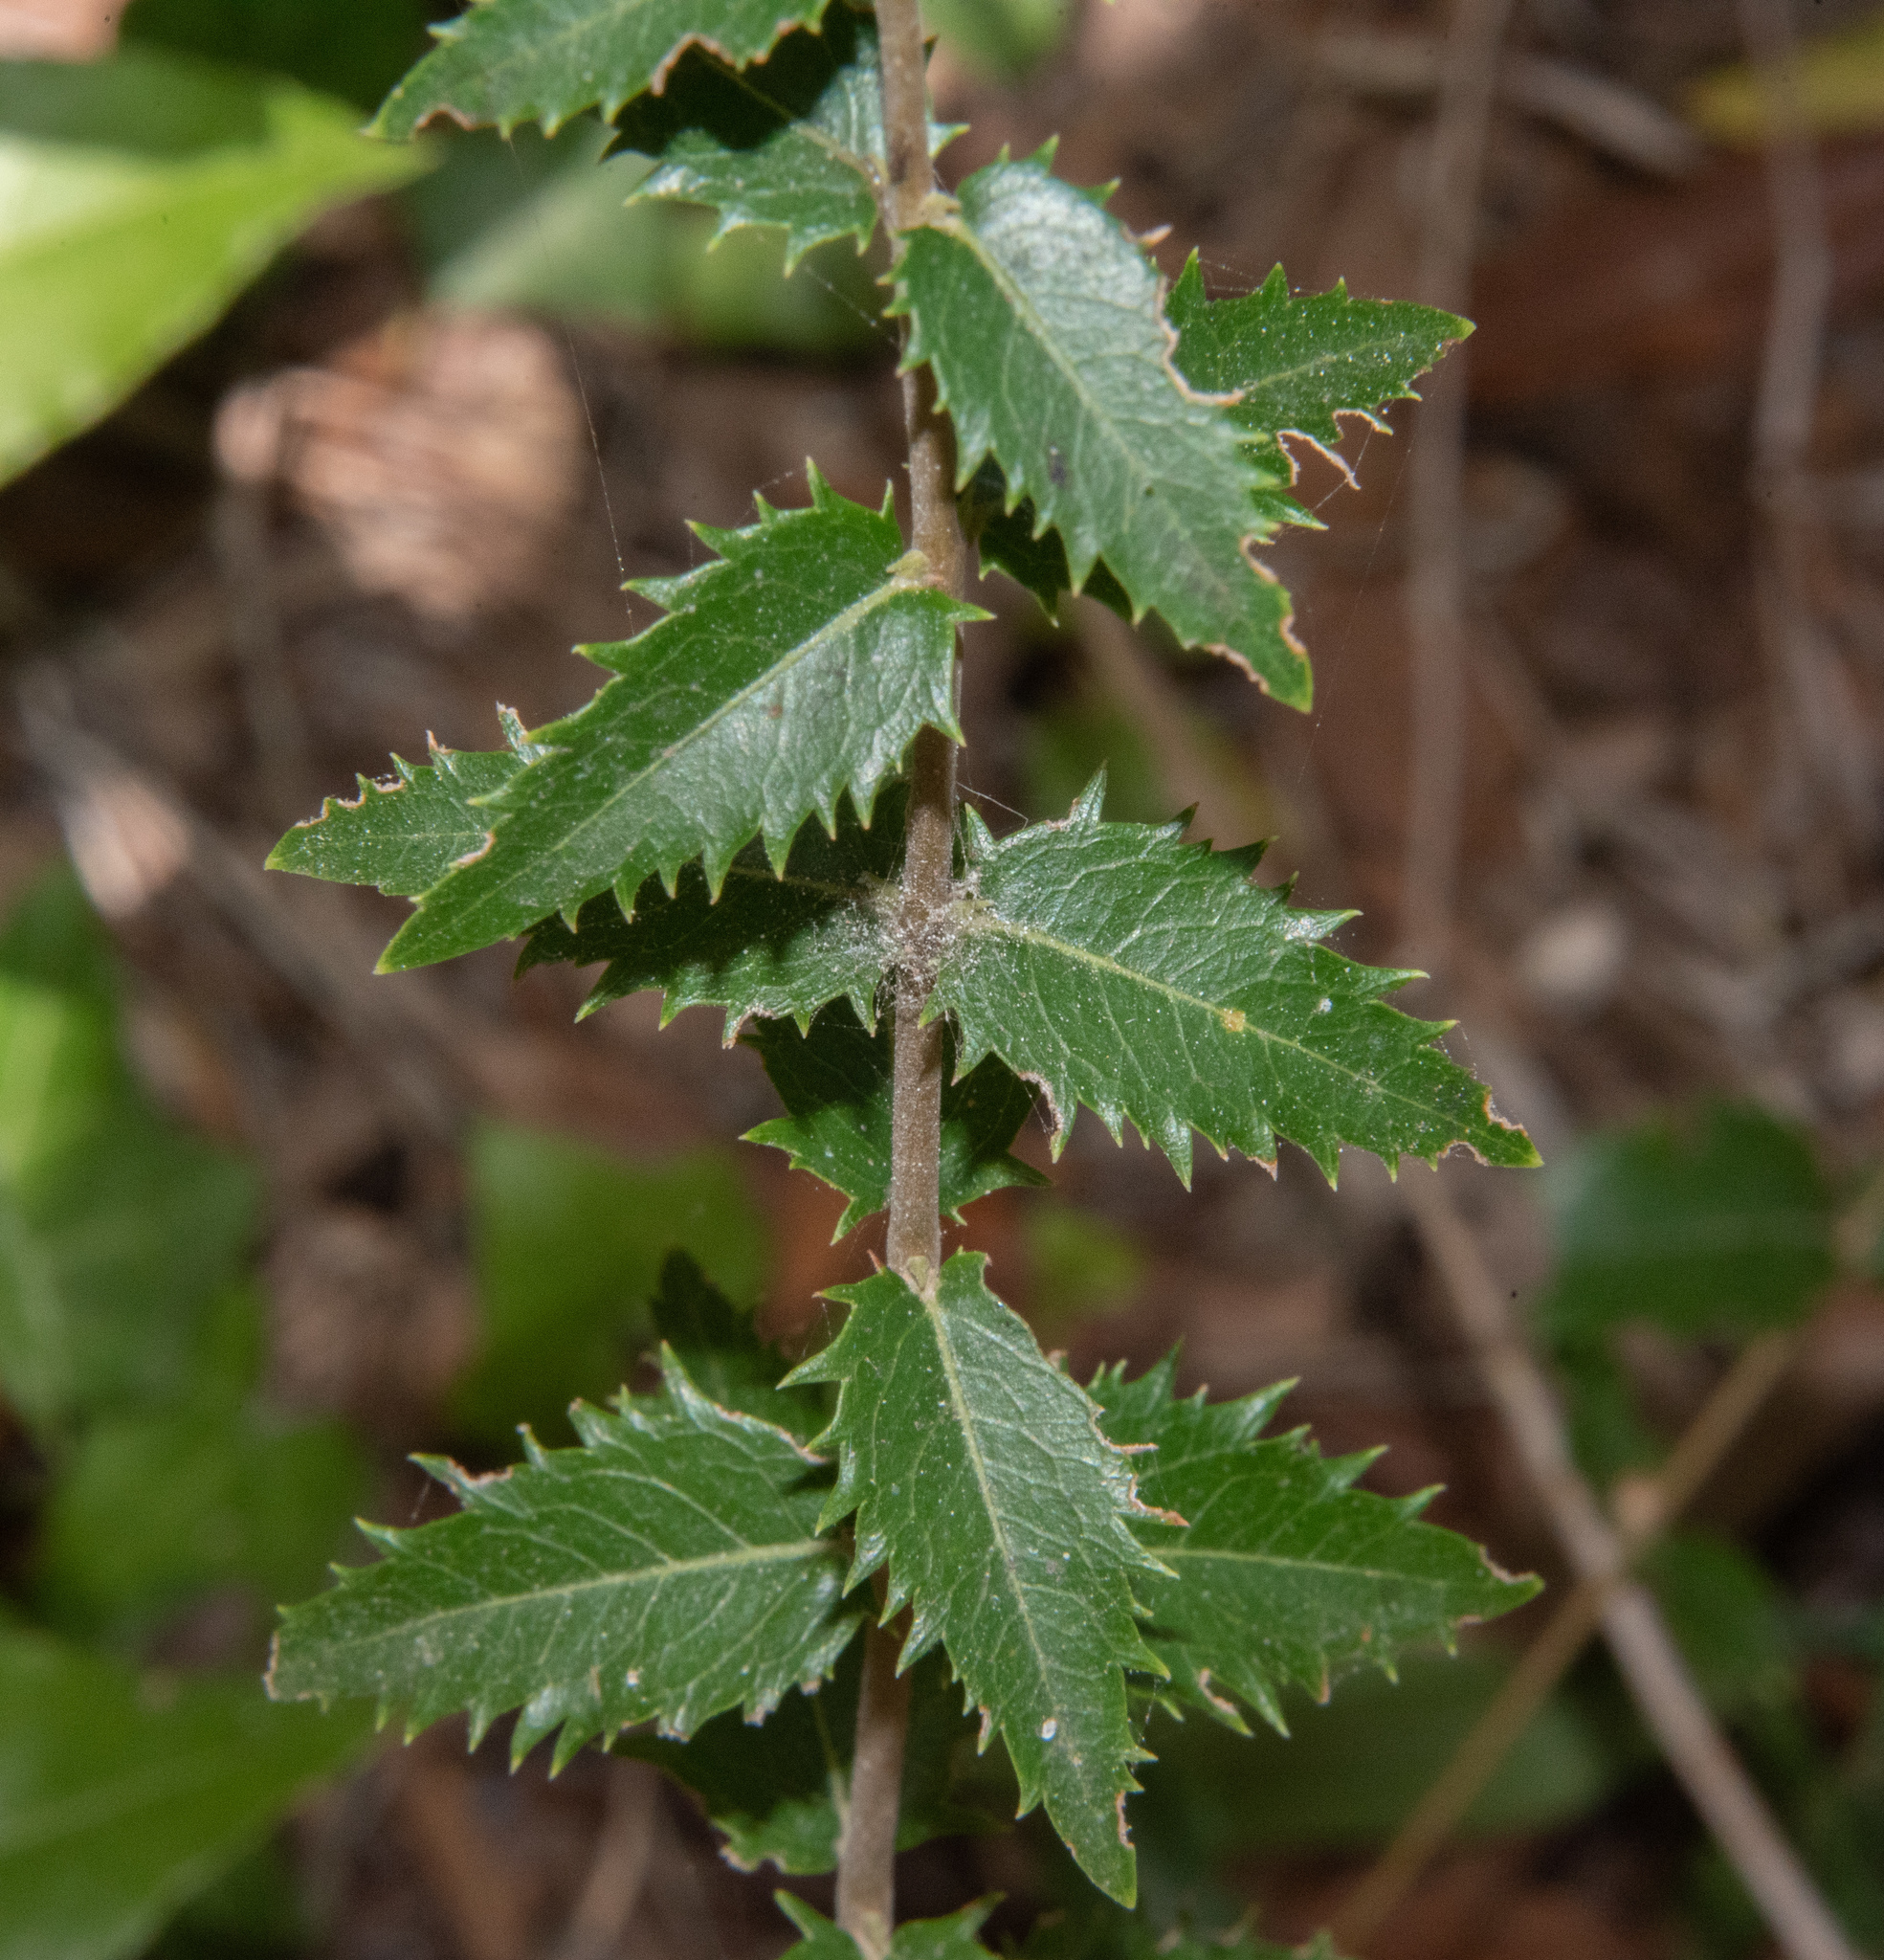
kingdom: Plantae
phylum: Tracheophyta
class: Magnoliopsida
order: Lamiales
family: Oleaceae
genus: Phillyrea
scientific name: Phillyrea latifolia
